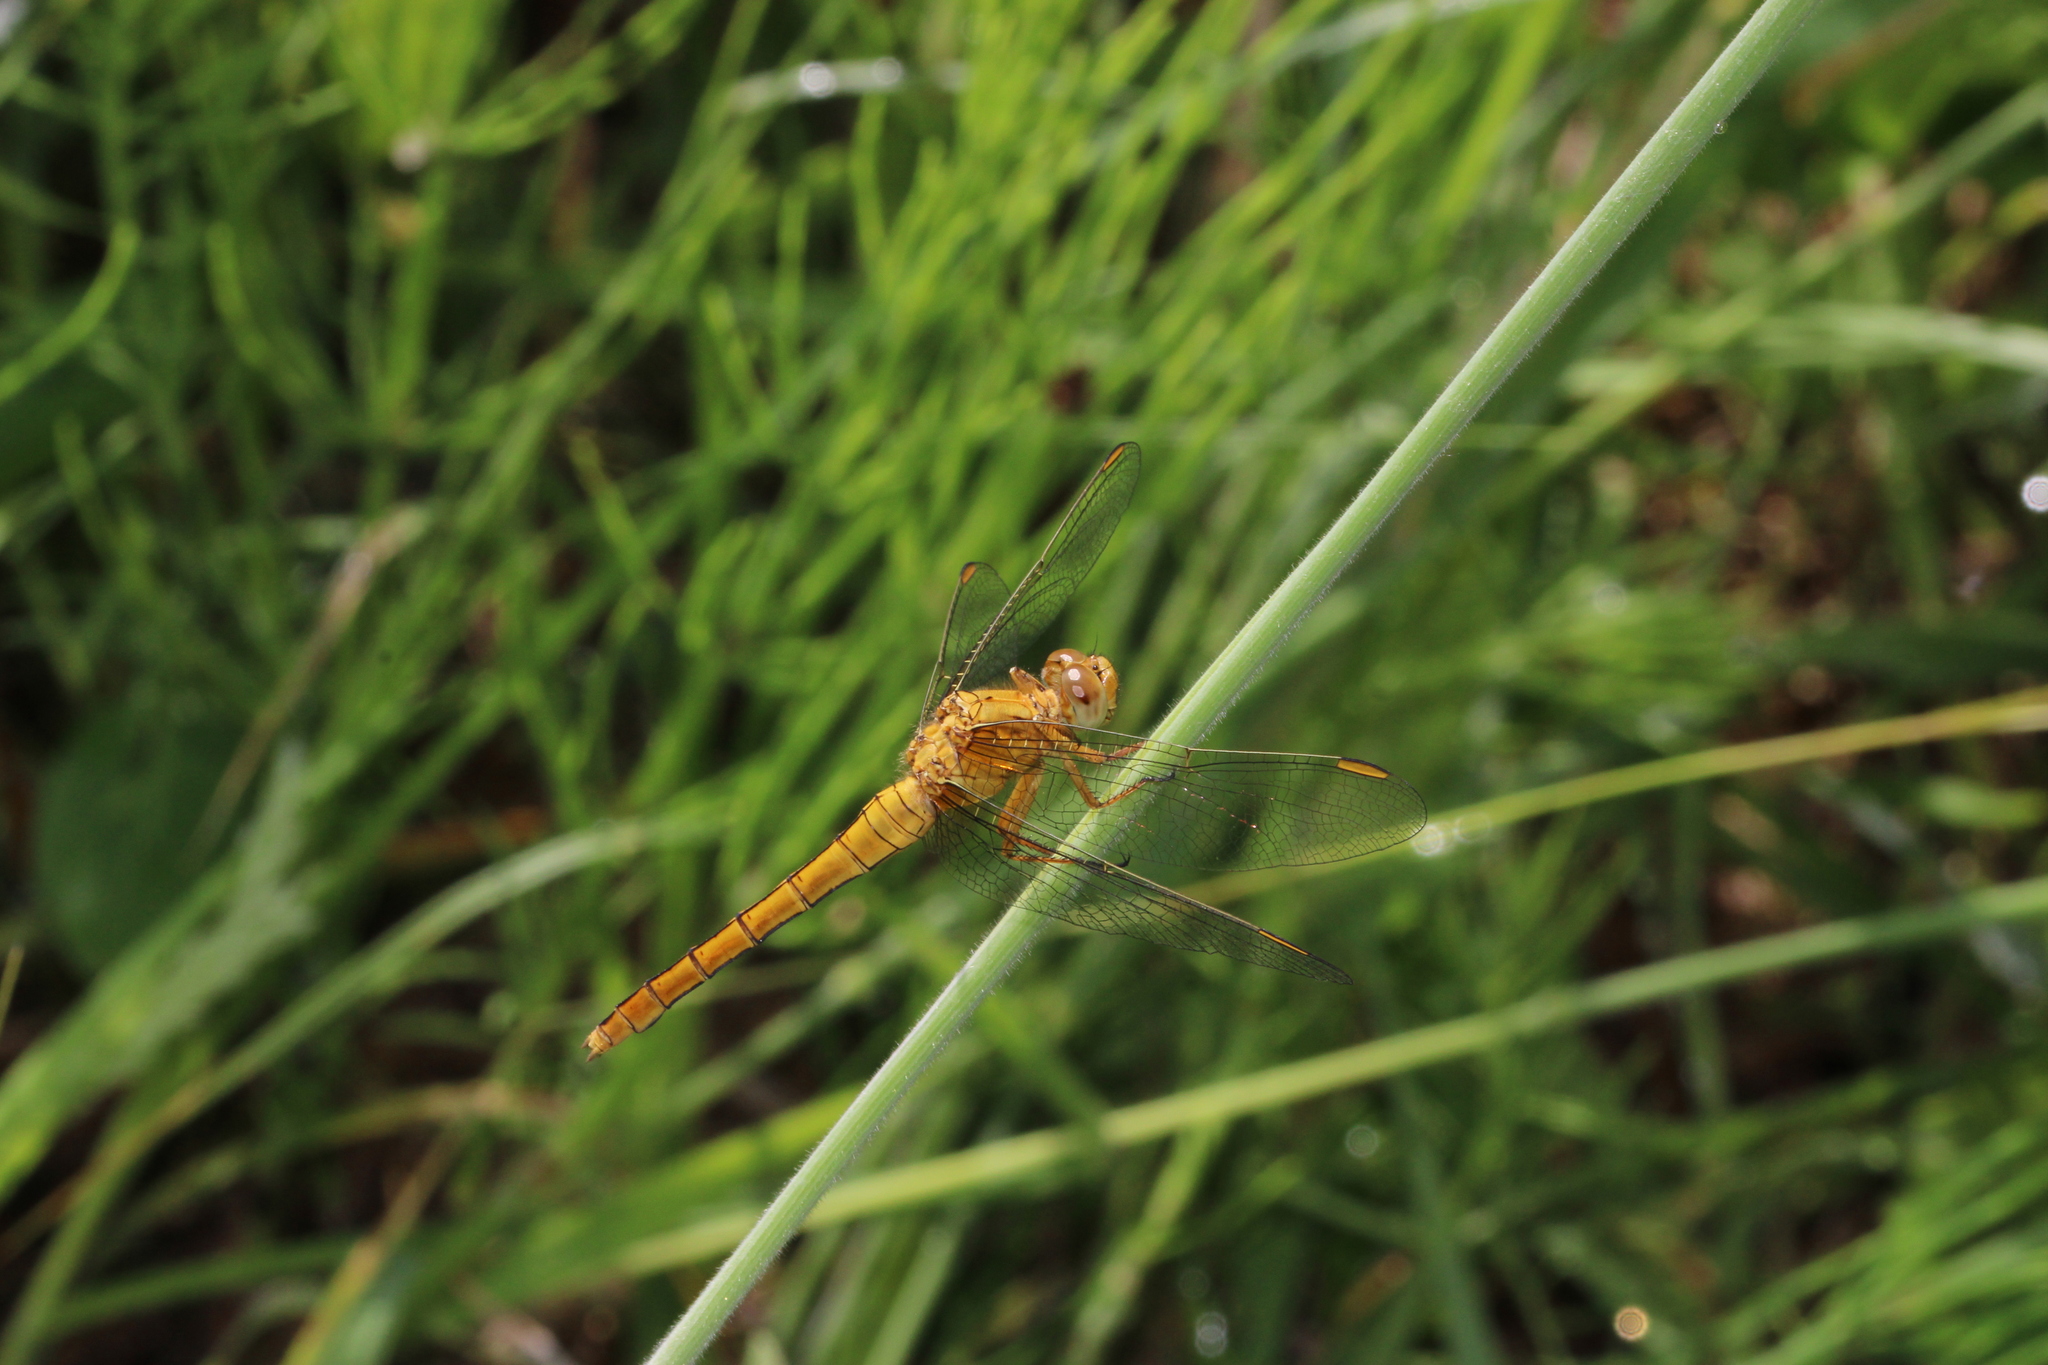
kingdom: Animalia
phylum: Arthropoda
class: Insecta
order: Odonata
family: Libellulidae
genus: Orthetrum
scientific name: Orthetrum coerulescens
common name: Keeled skimmer
